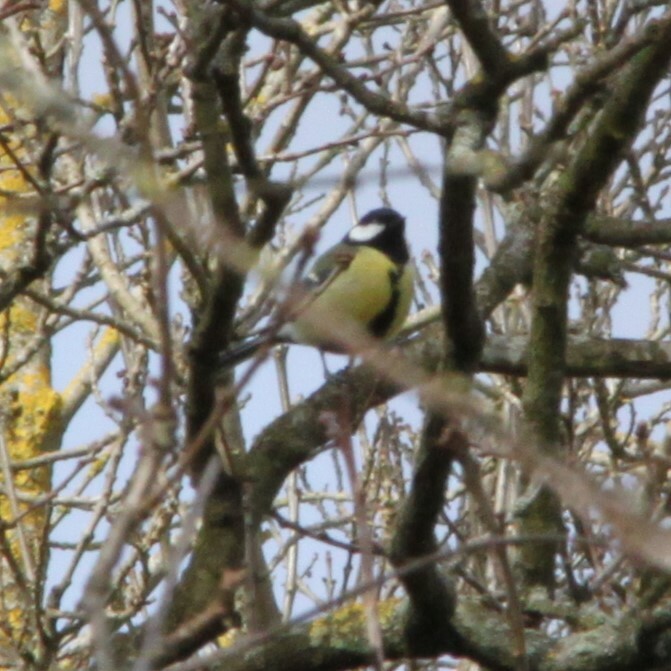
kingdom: Animalia
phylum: Chordata
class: Aves
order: Passeriformes
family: Paridae
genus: Parus
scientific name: Parus major
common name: Great tit
